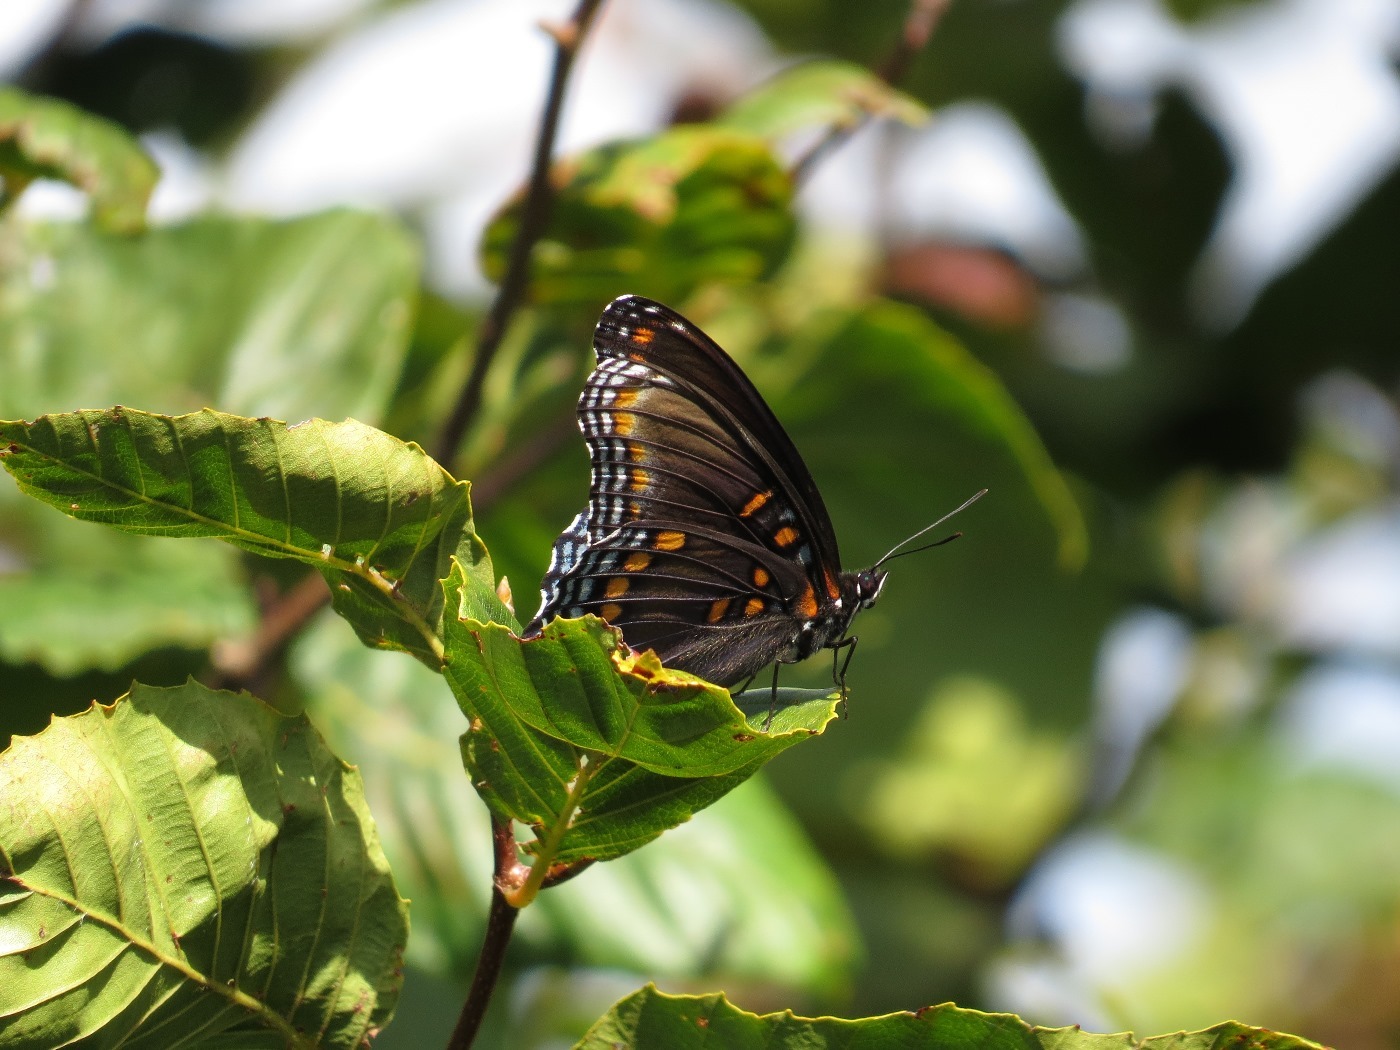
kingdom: Animalia
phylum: Arthropoda
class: Insecta
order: Lepidoptera
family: Nymphalidae
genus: Limenitis
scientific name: Limenitis astyanax
